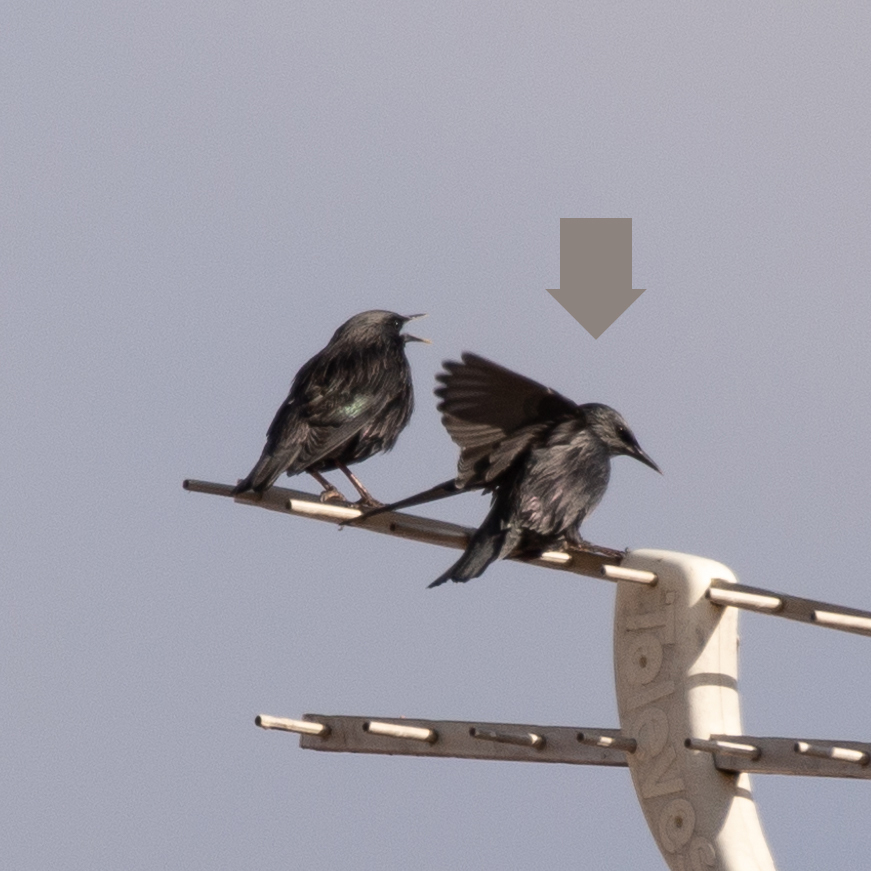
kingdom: Animalia
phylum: Chordata
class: Aves
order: Passeriformes
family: Sturnidae
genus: Sturnus
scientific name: Sturnus unicolor
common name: Spotless starling
